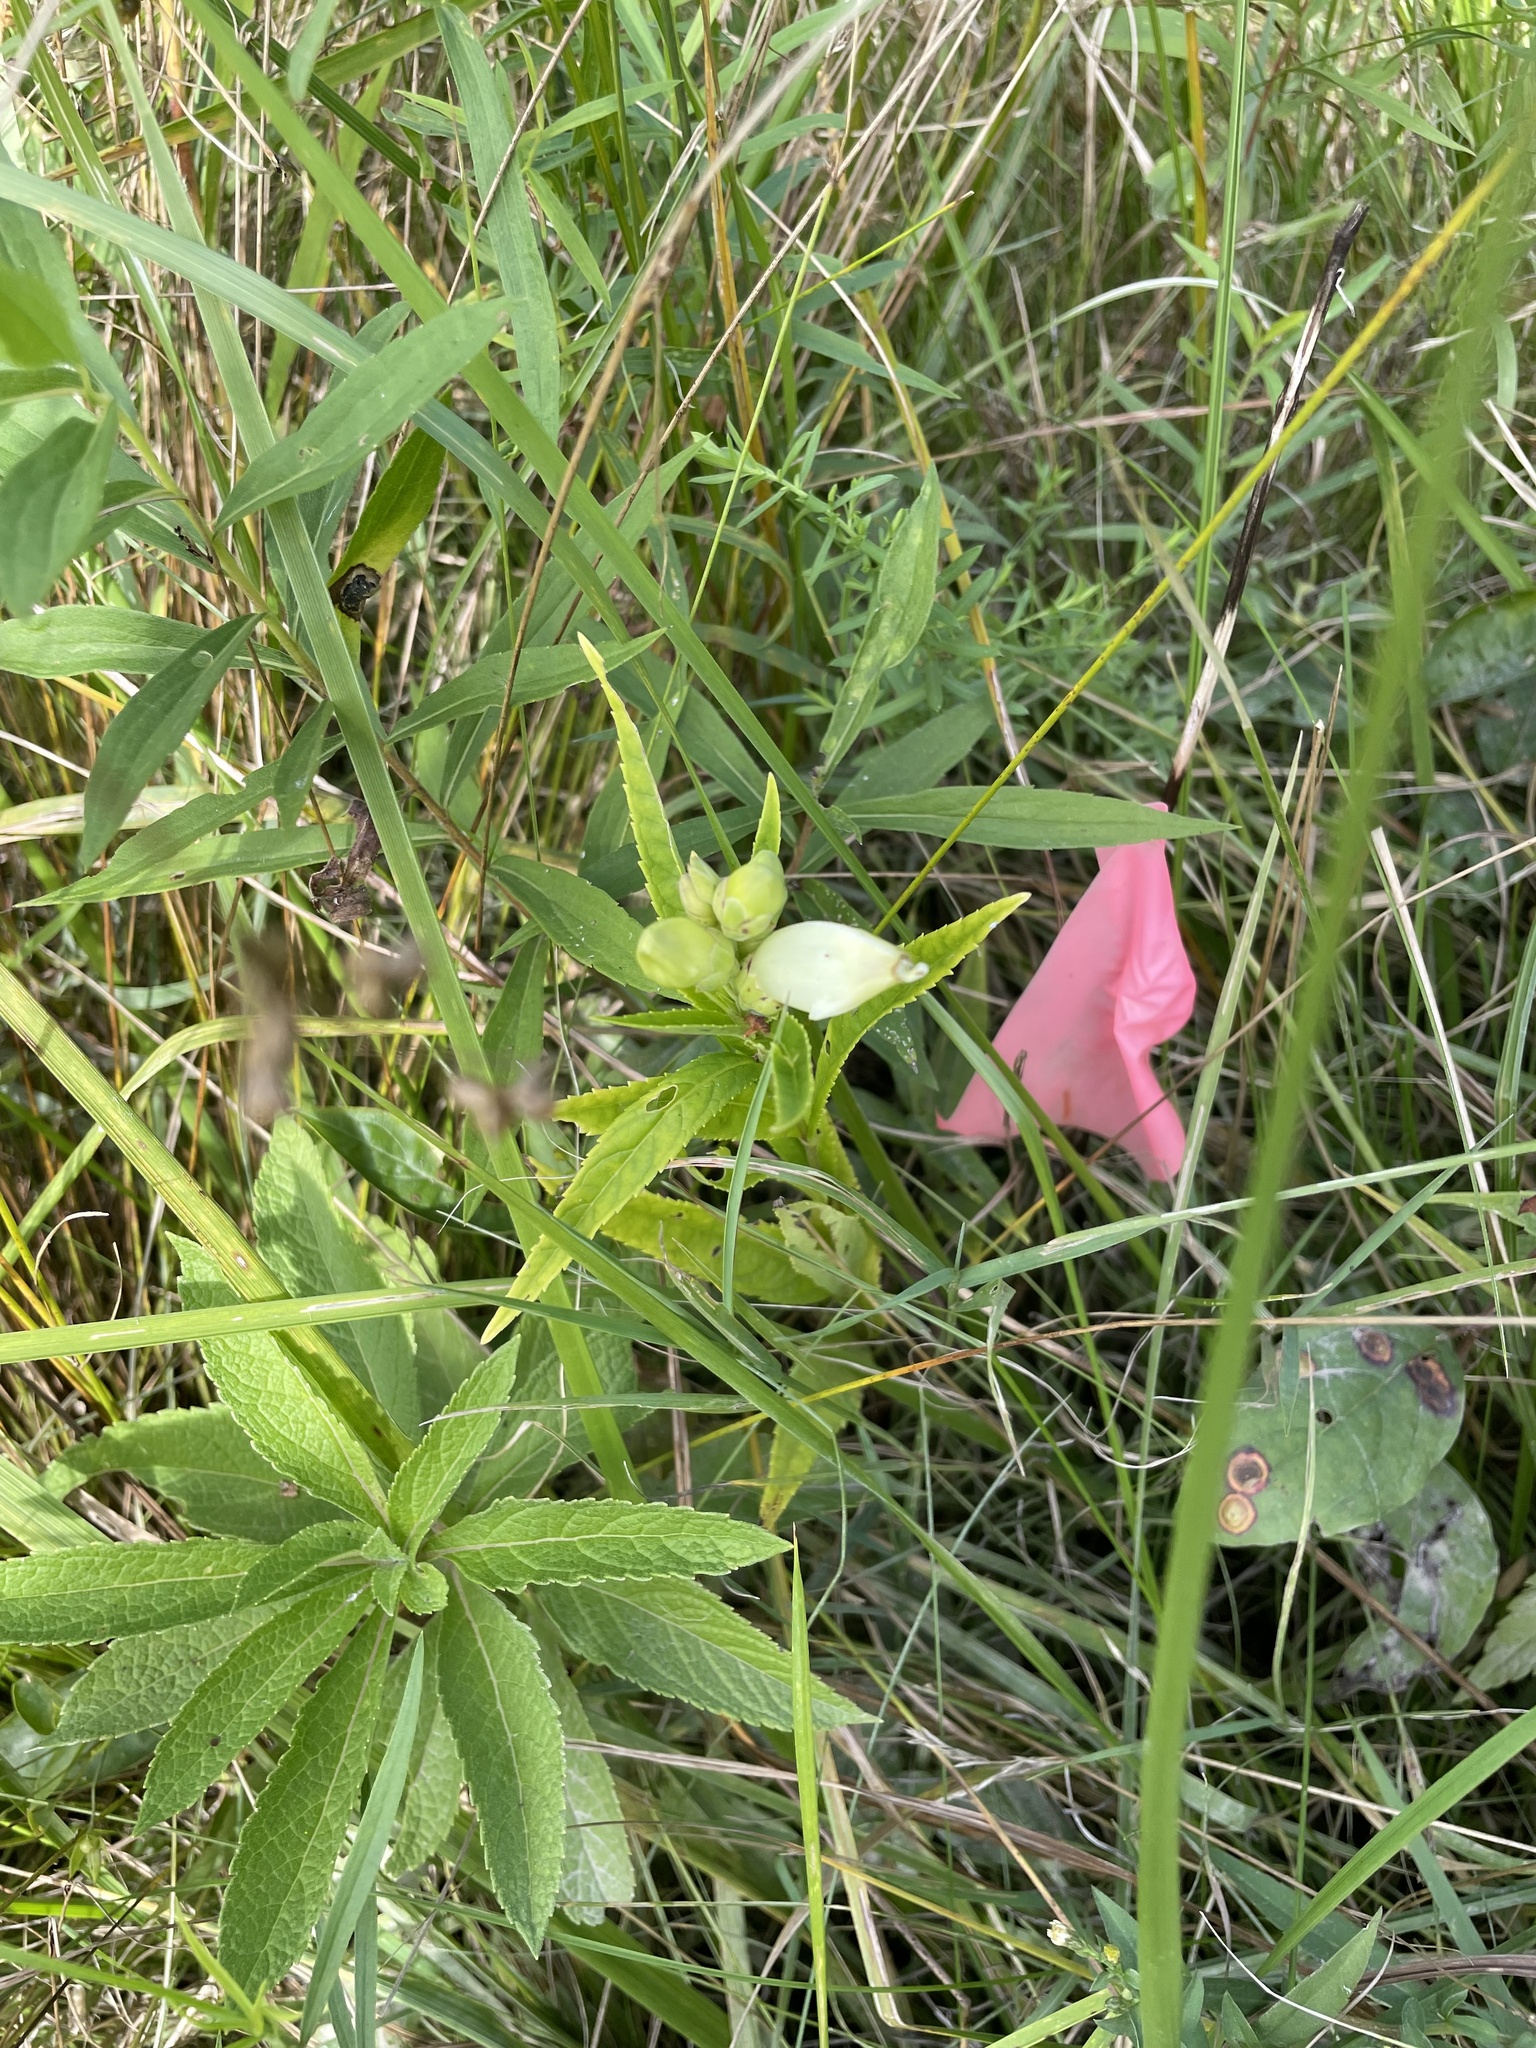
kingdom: Plantae
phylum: Tracheophyta
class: Magnoliopsida
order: Lamiales
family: Plantaginaceae
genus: Chelone
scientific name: Chelone glabra
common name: Snakehead
